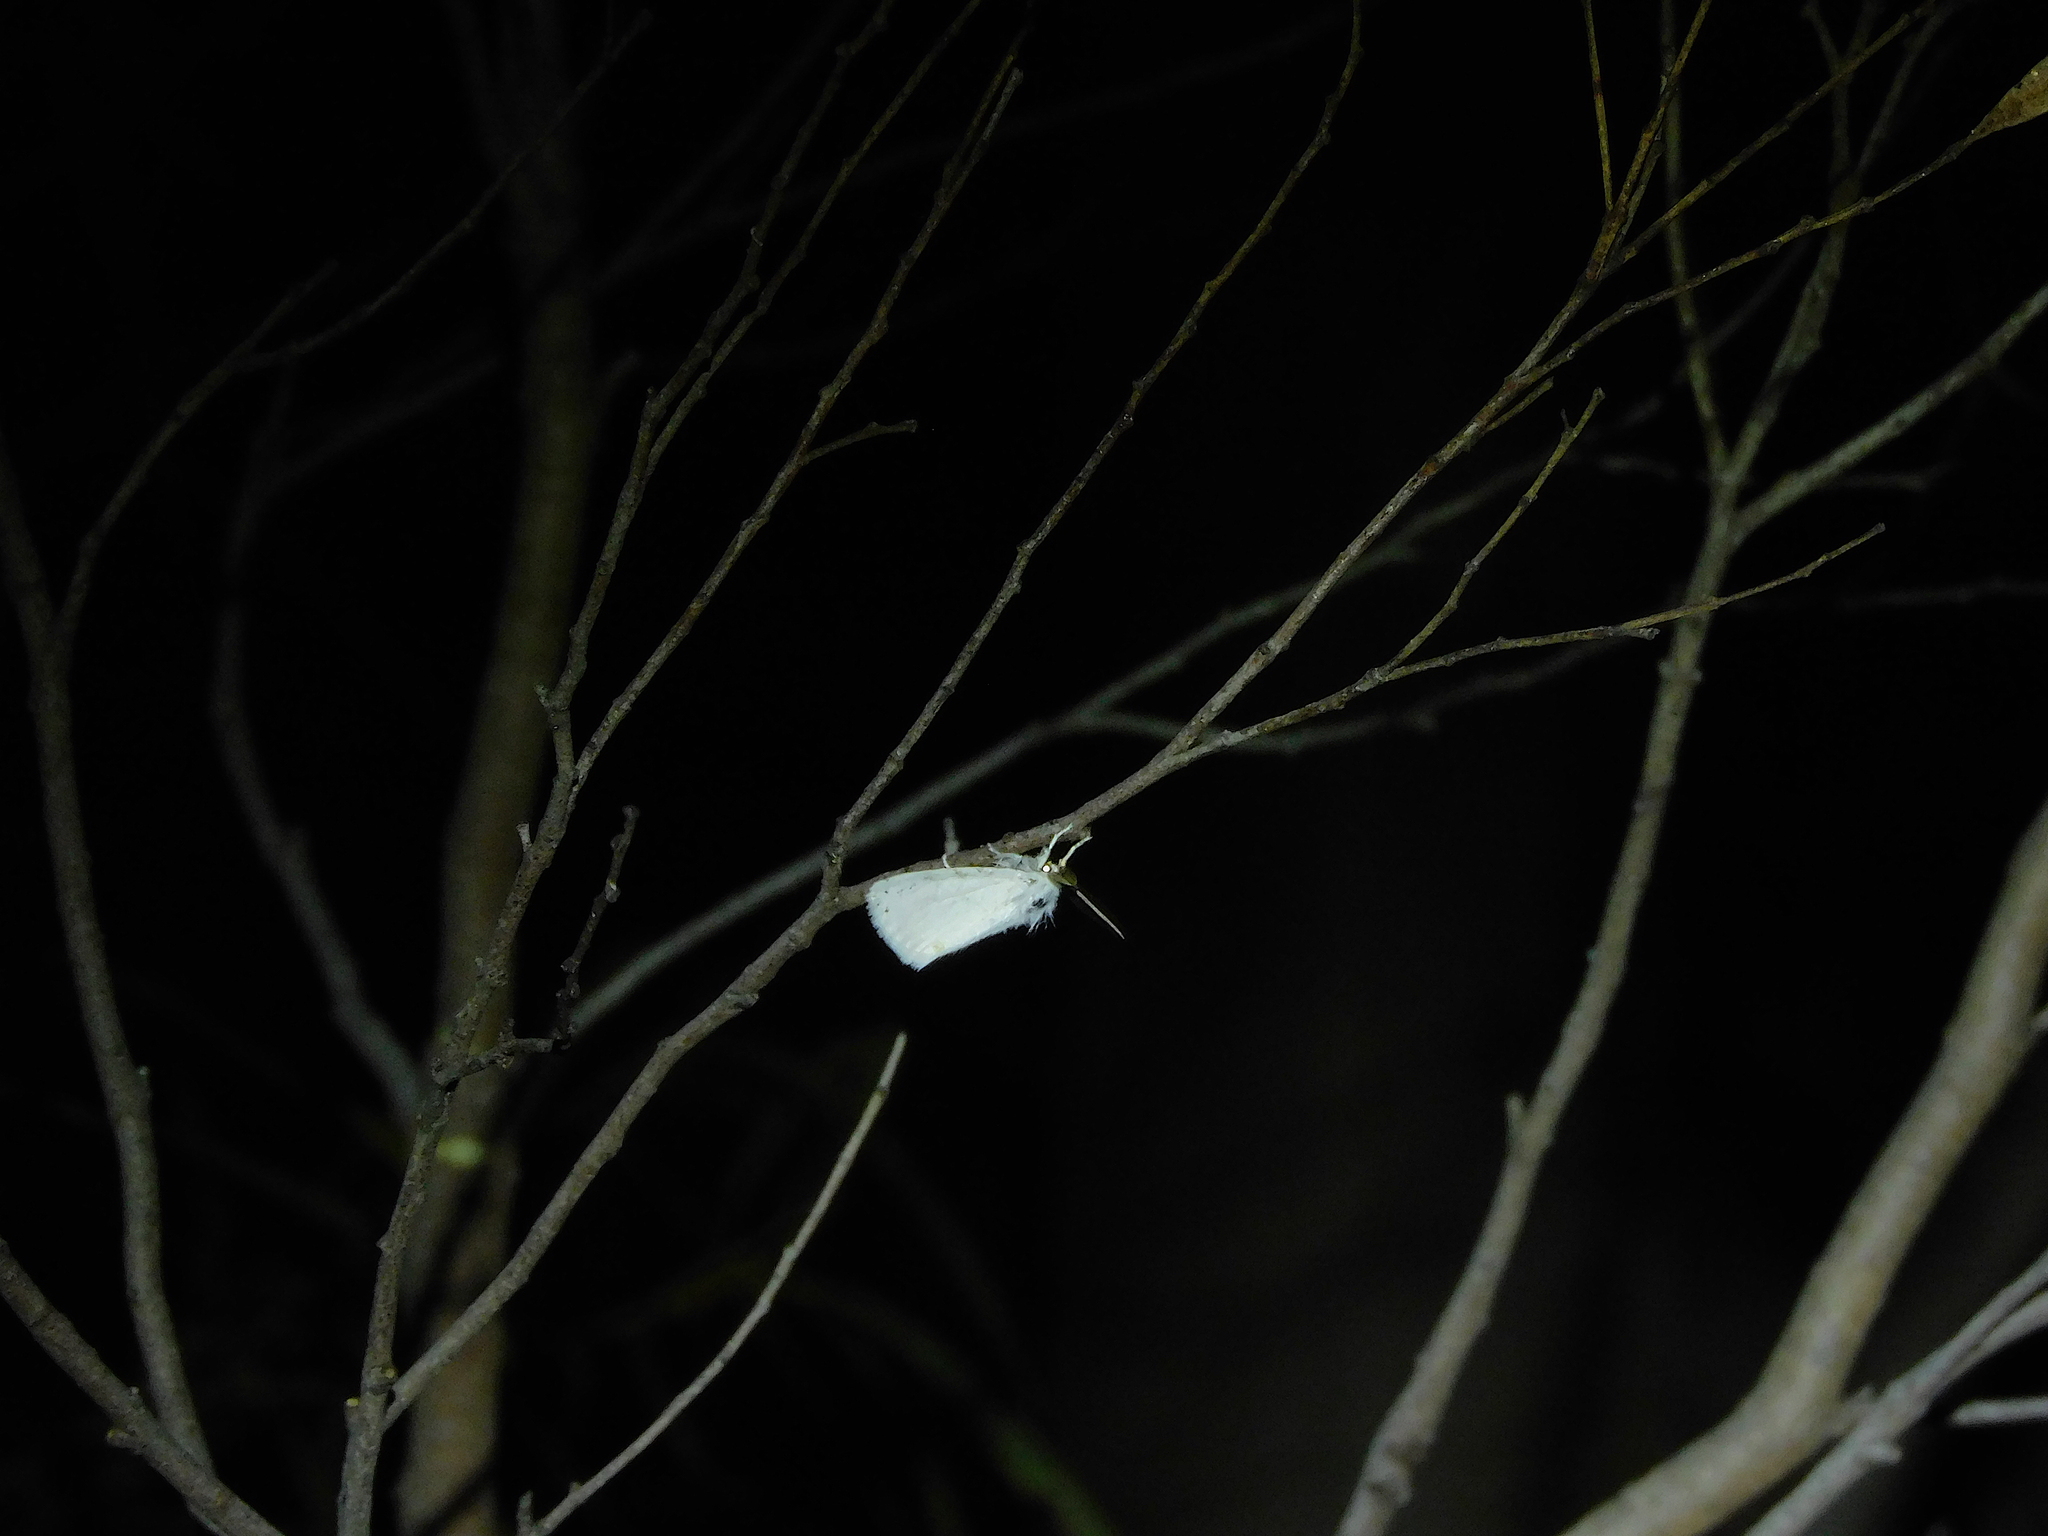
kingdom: Animalia
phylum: Arthropoda
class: Insecta
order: Lepidoptera
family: Erebidae
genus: Acyphas
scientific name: Acyphas semiochrea
